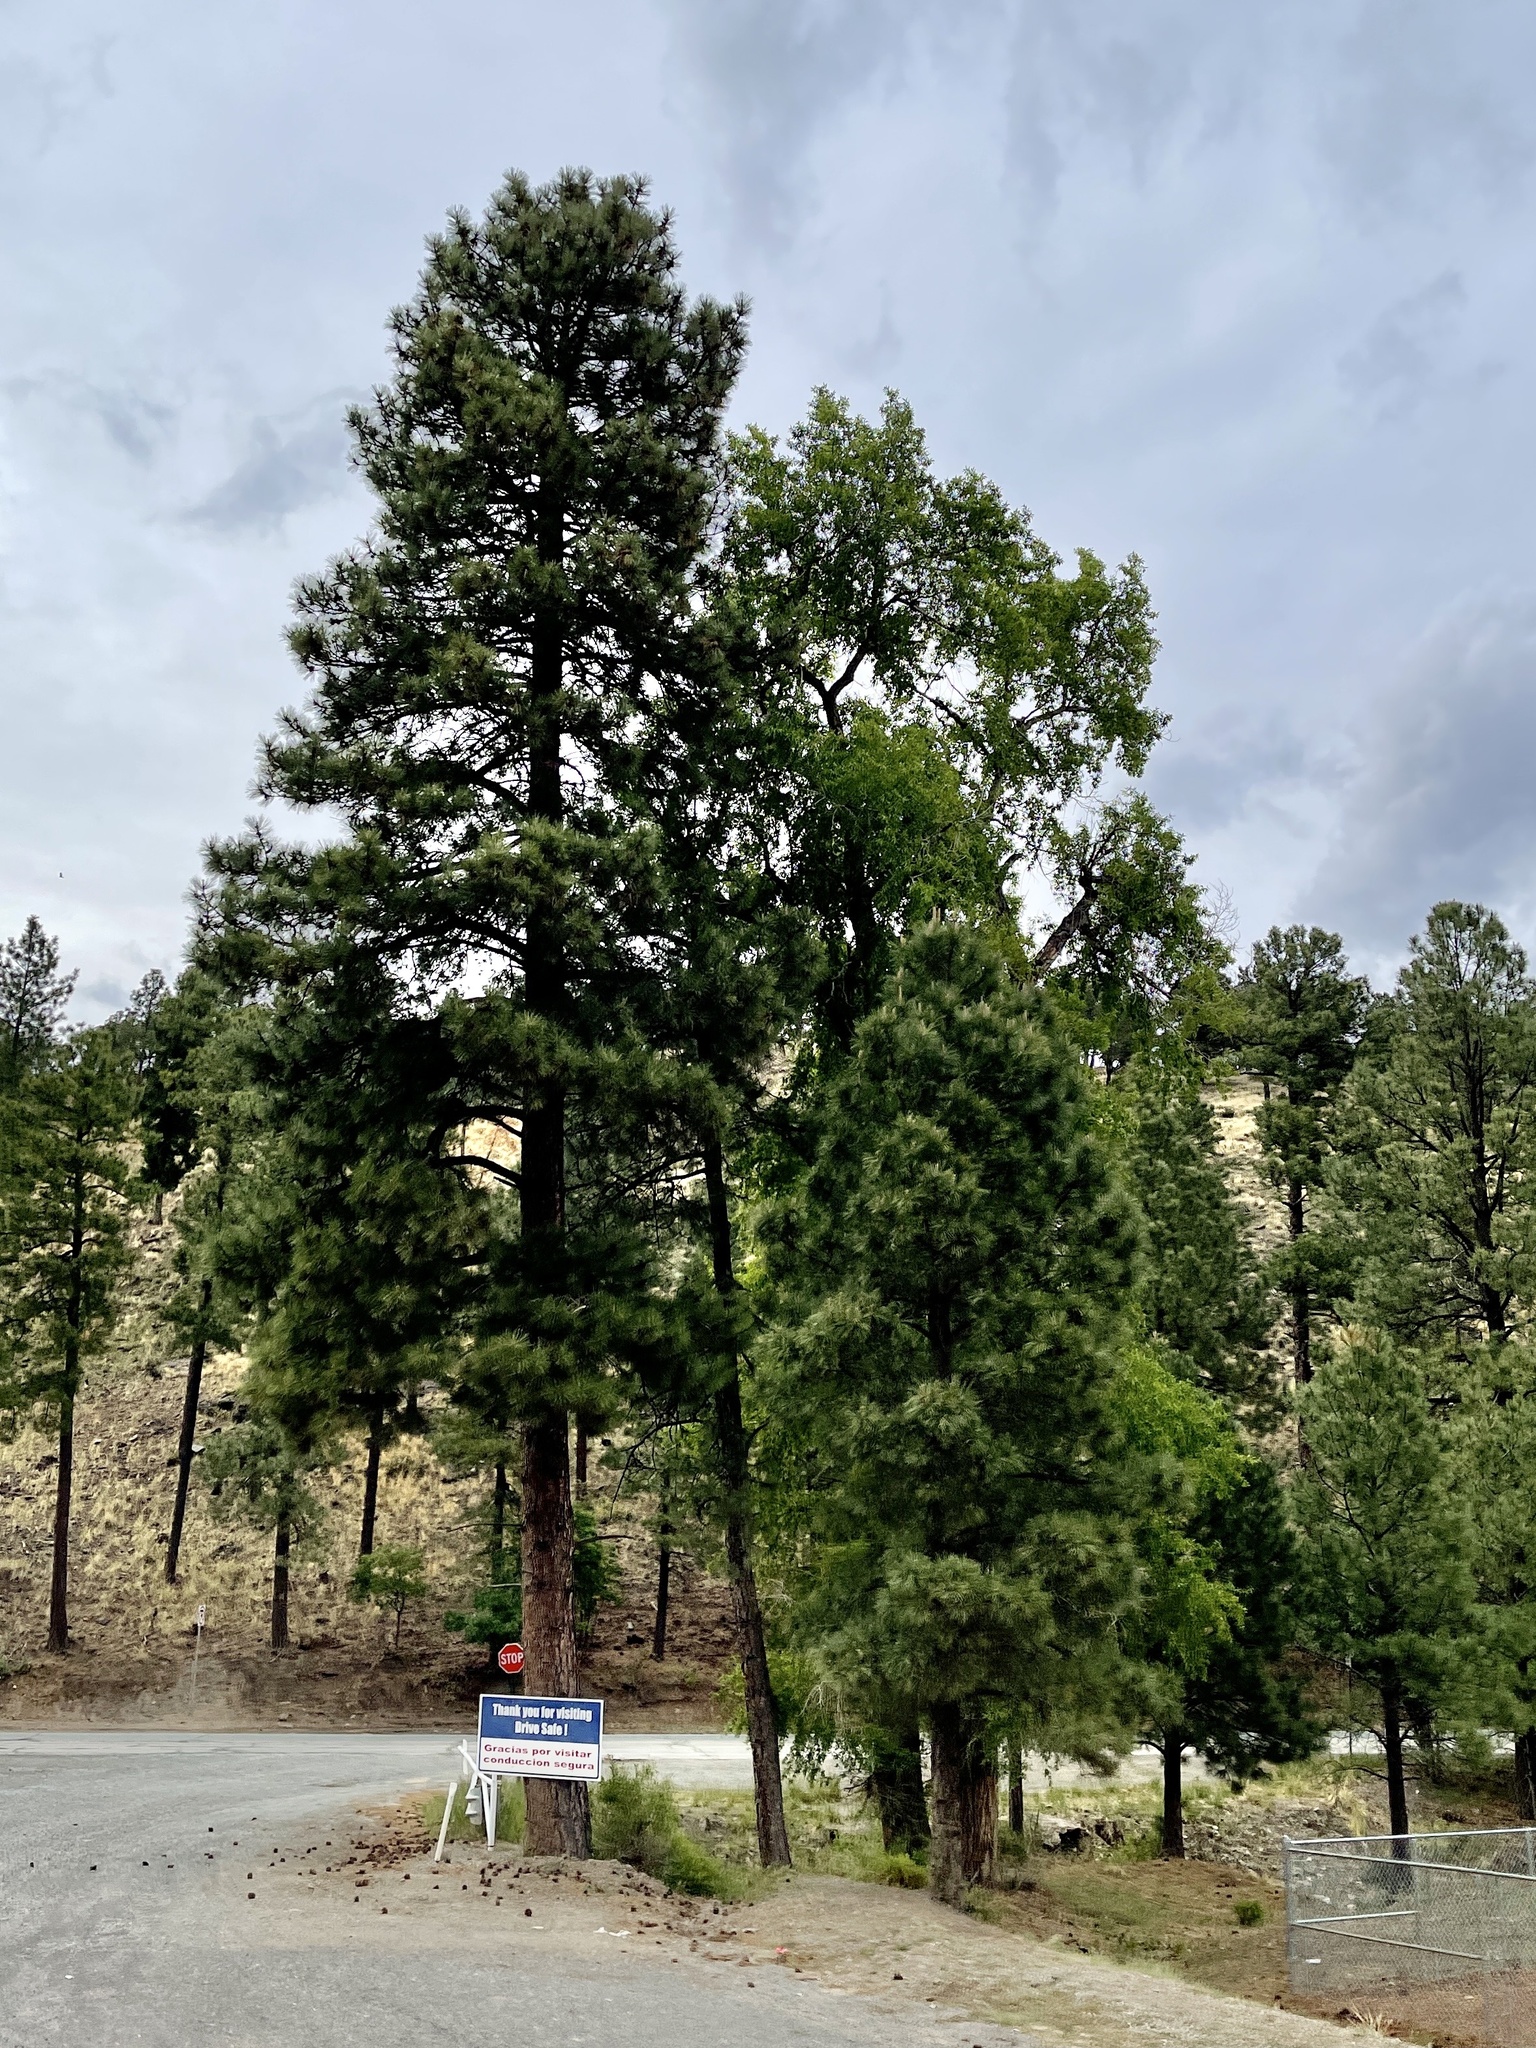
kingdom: Plantae
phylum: Tracheophyta
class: Pinopsida
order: Pinales
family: Pinaceae
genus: Pinus
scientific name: Pinus ponderosa
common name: Western yellow-pine
